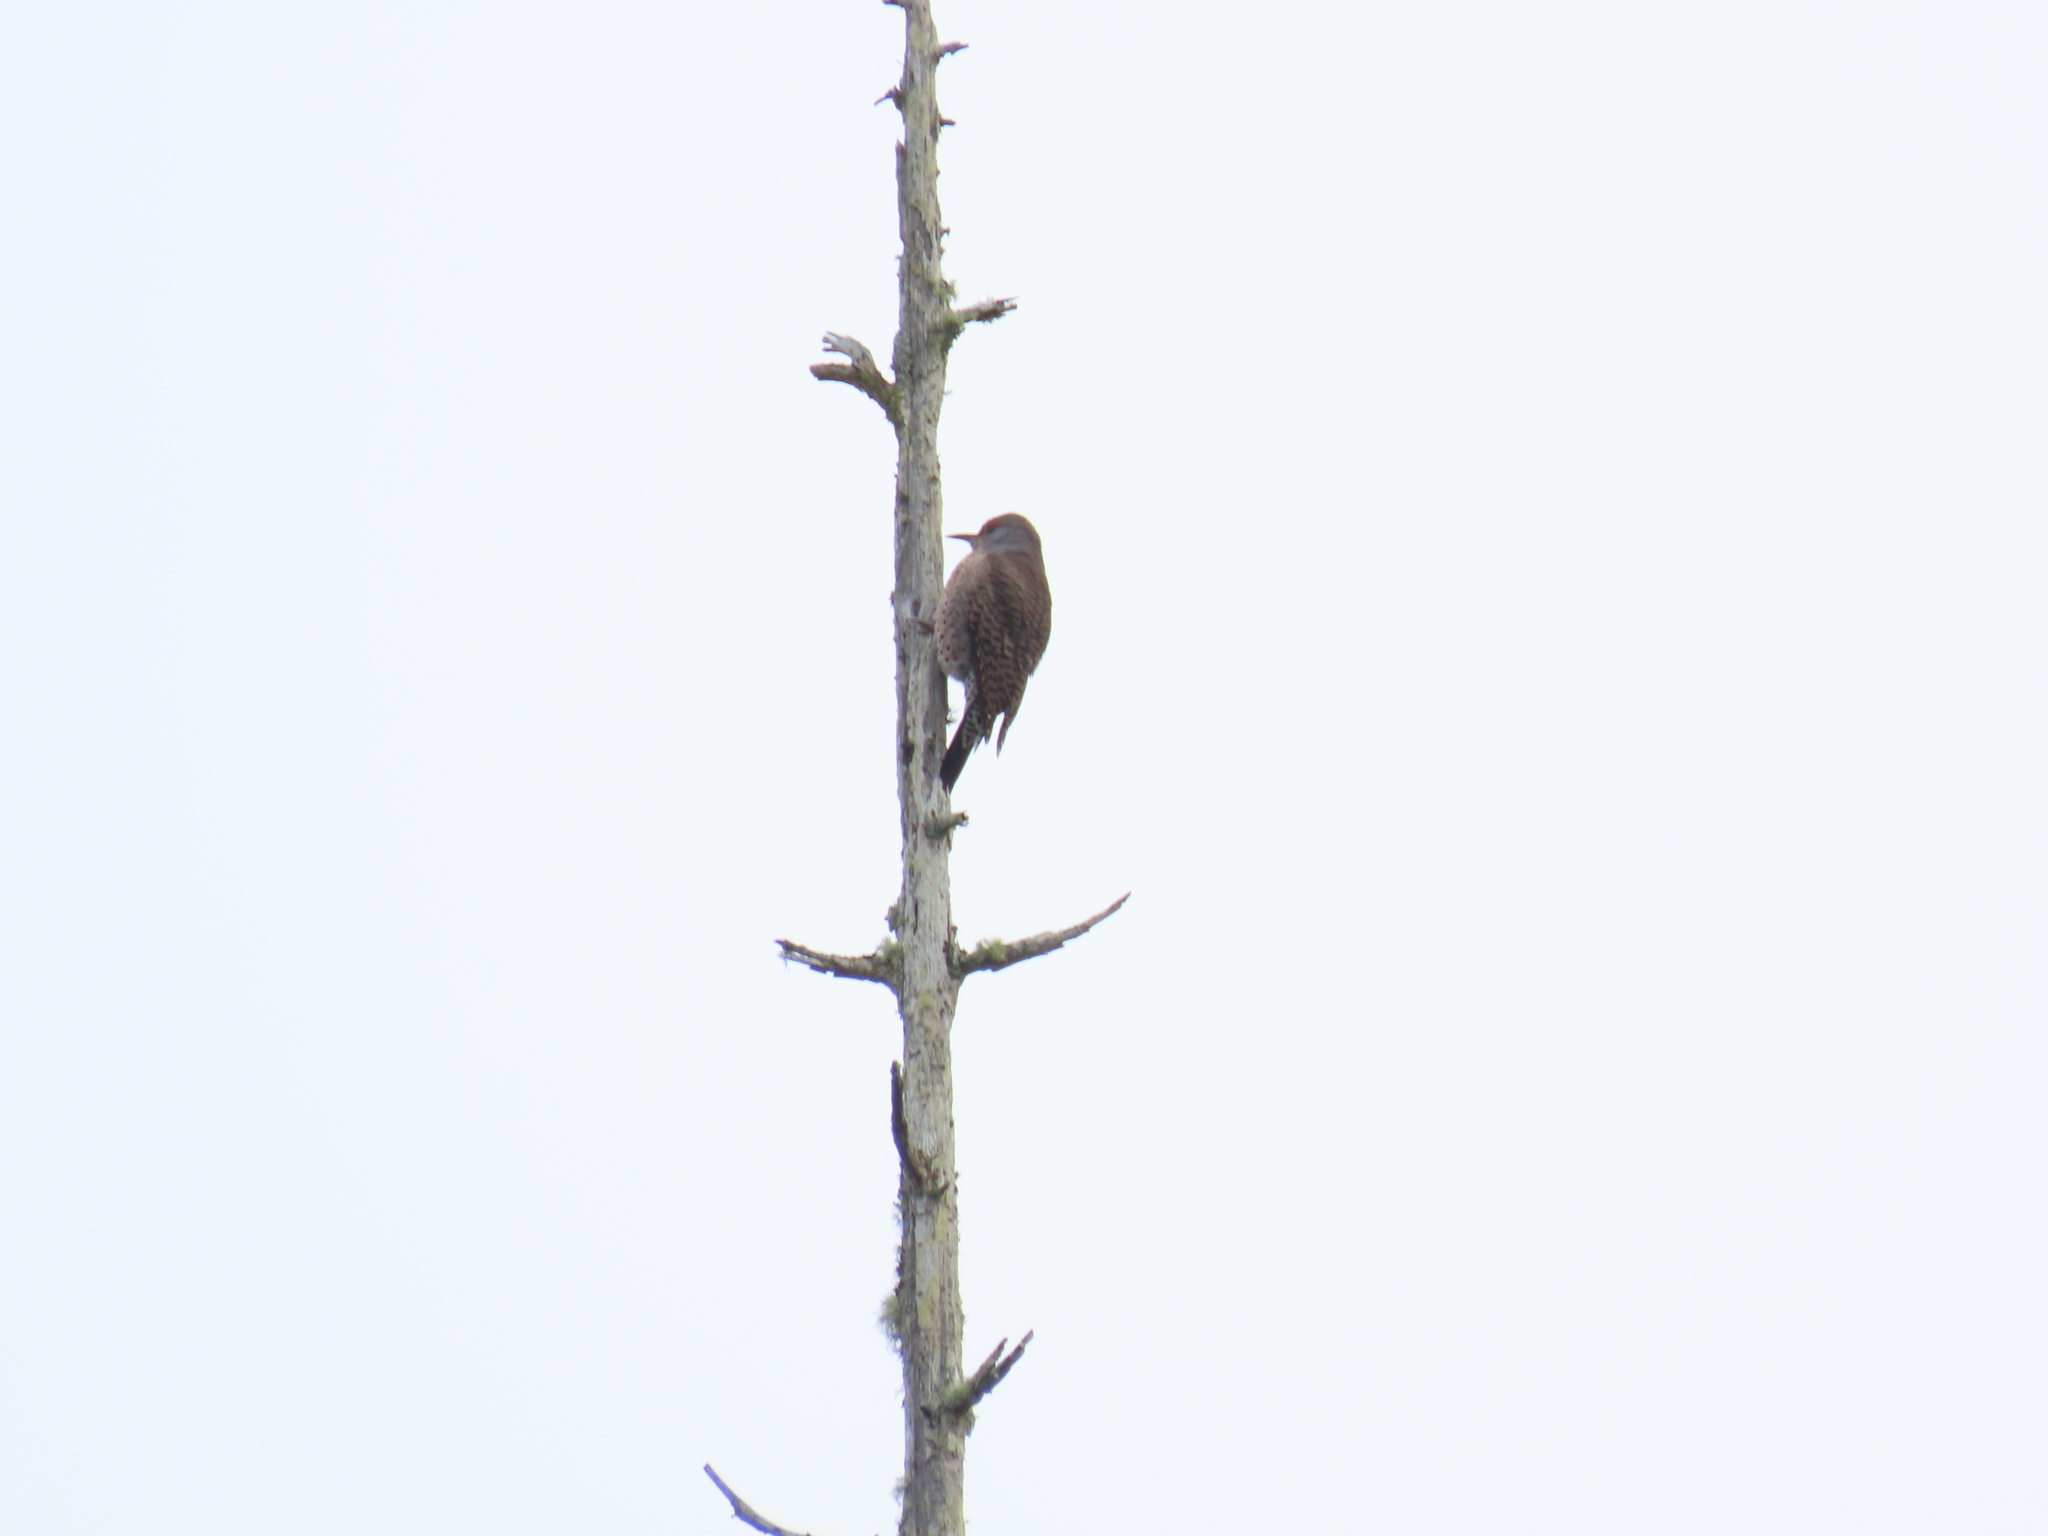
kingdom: Animalia
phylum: Chordata
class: Aves
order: Piciformes
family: Picidae
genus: Colaptes
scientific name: Colaptes auratus
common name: Northern flicker
